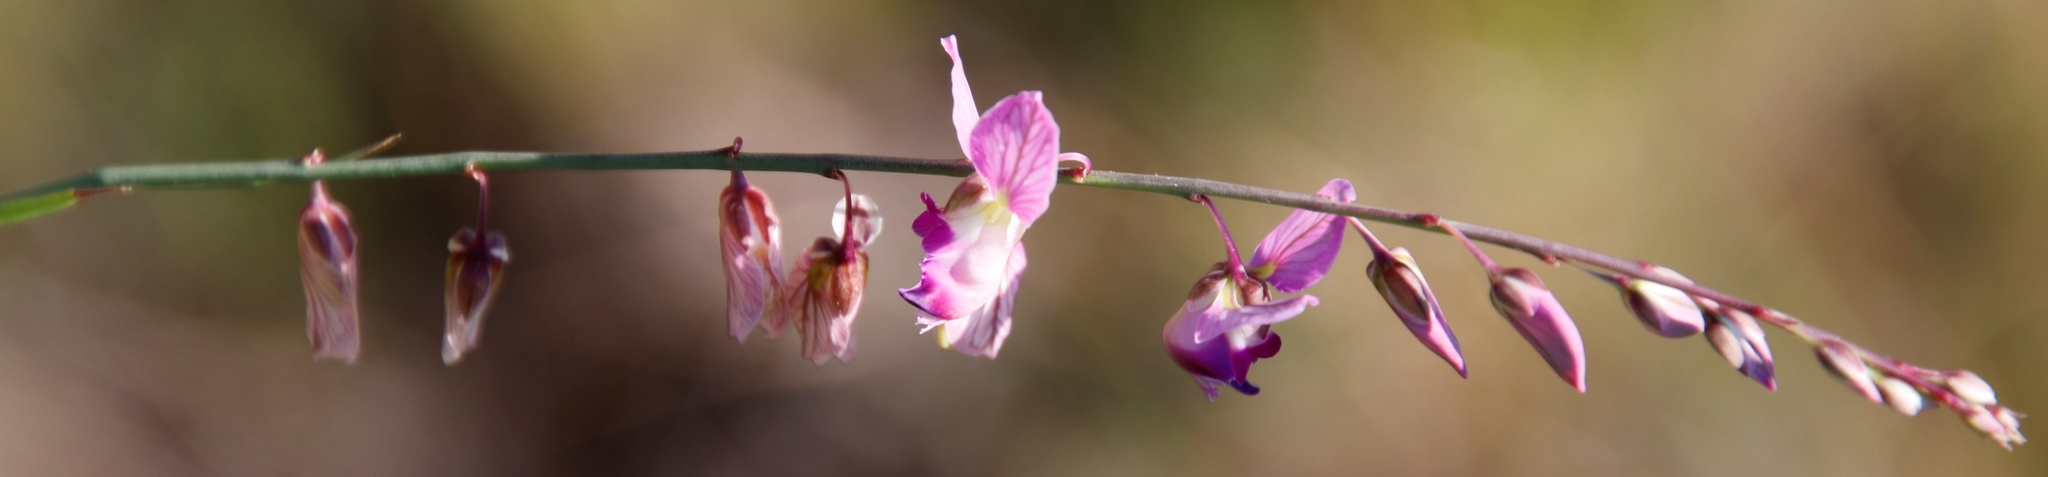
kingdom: Plantae
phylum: Tracheophyta
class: Magnoliopsida
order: Fabales
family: Polygalaceae
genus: Polygala
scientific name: Polygala hottentotta
